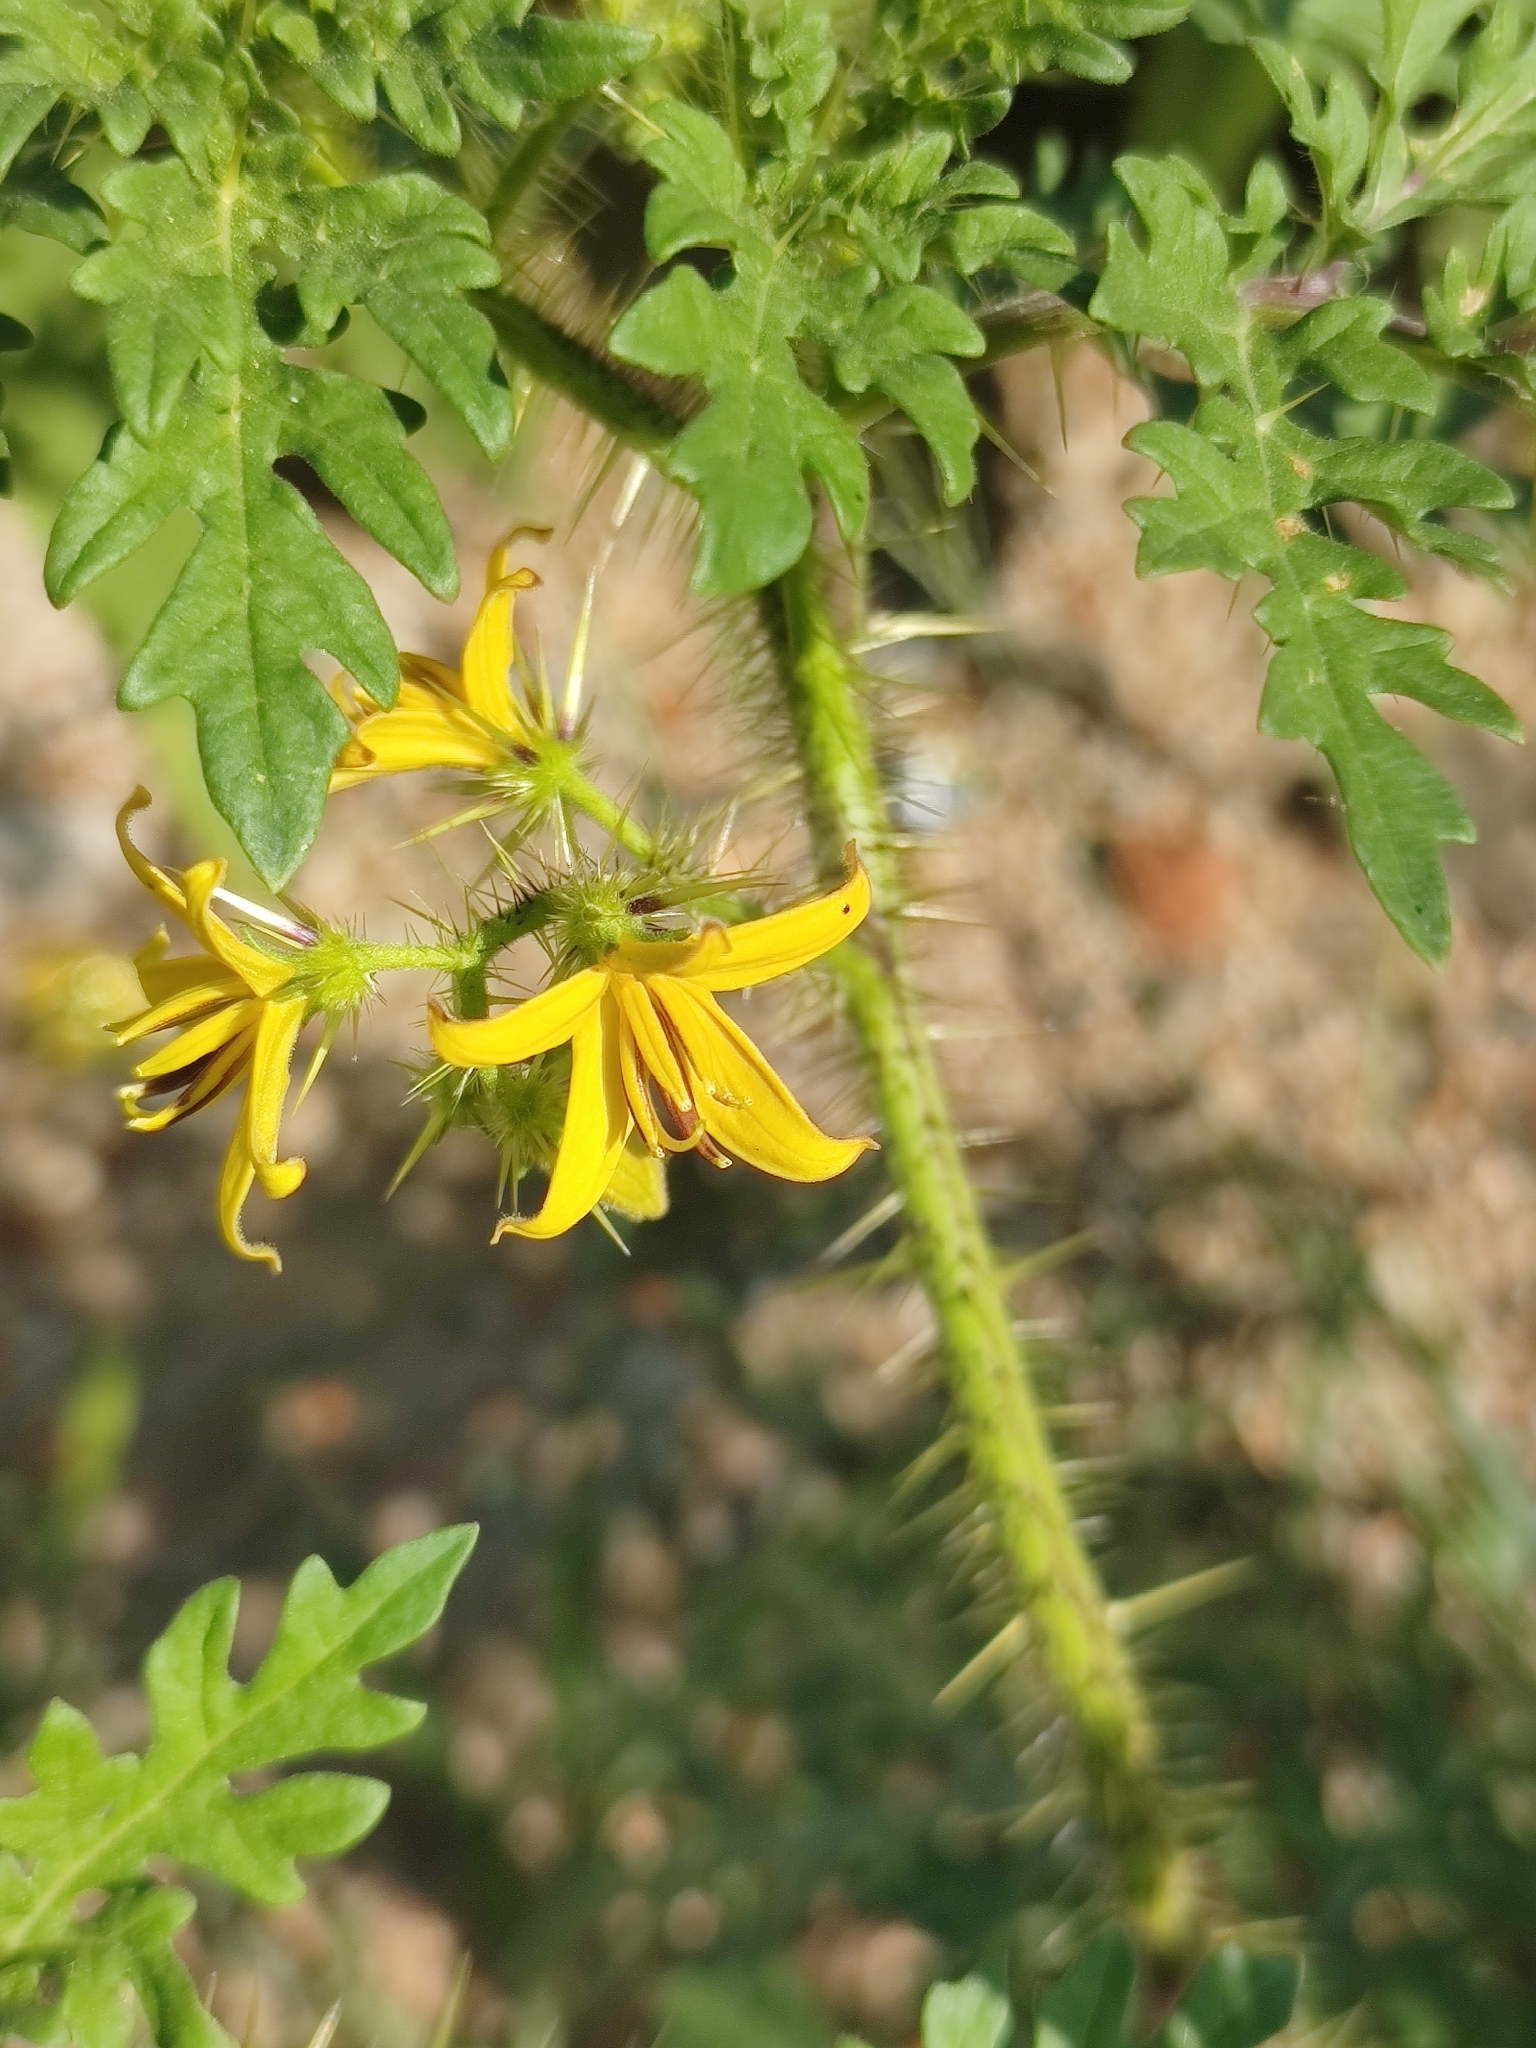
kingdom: Plantae
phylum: Tracheophyta
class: Magnoliopsida
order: Solanales
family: Solanaceae
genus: Solanum
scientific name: Solanum lumholtzianum
